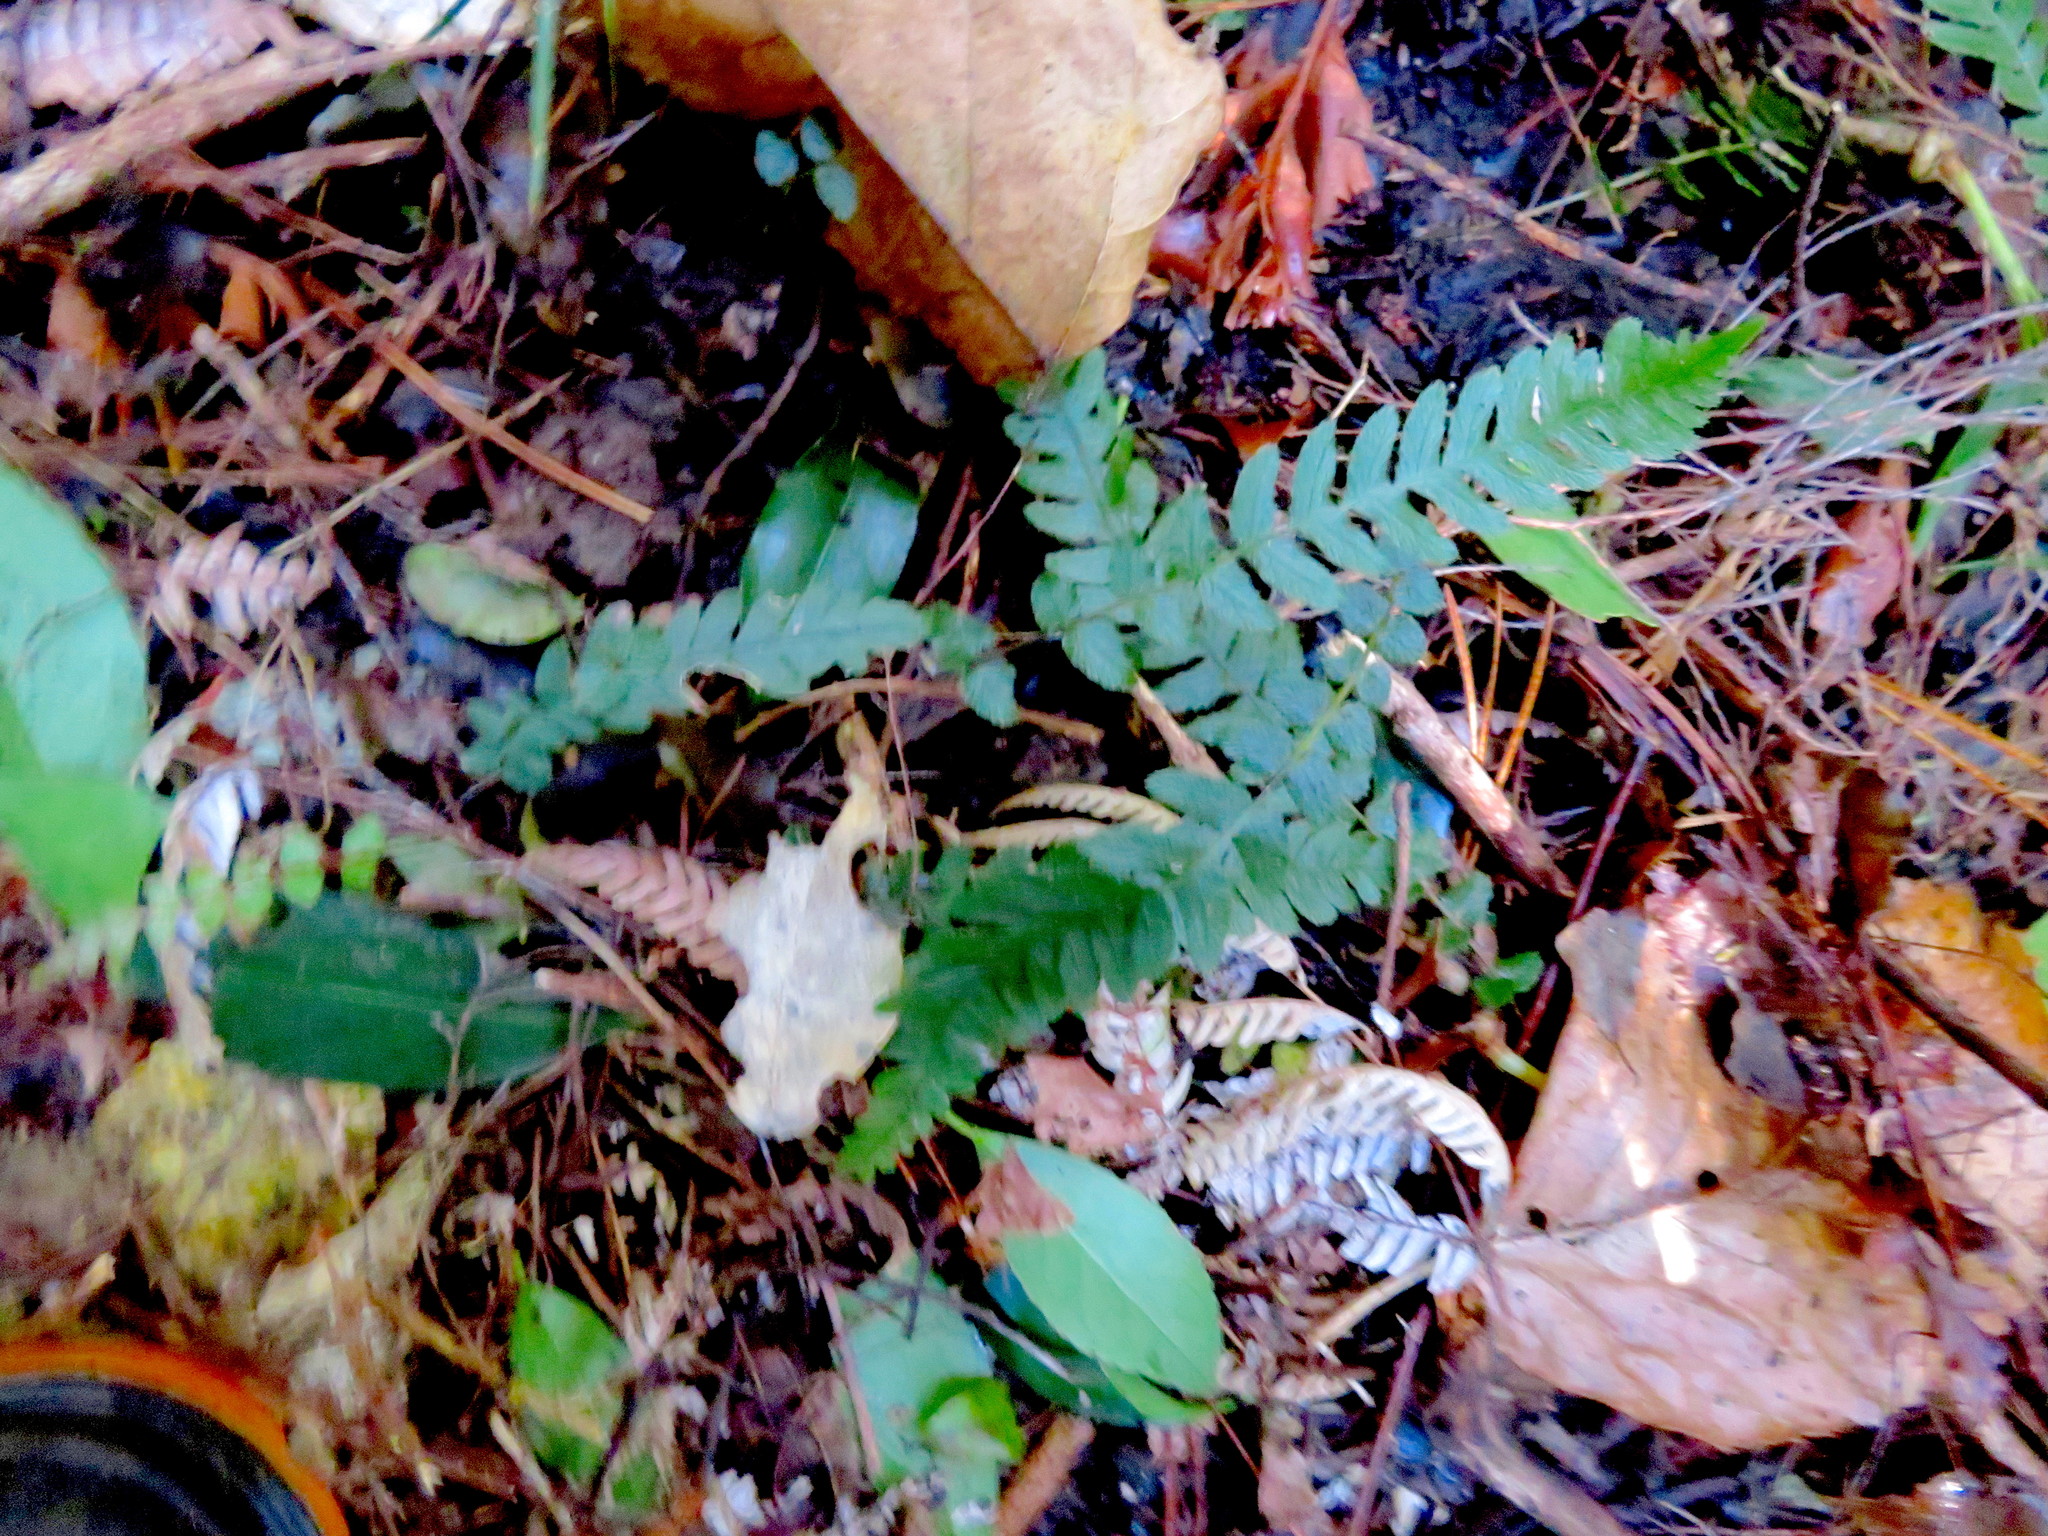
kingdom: Plantae
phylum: Tracheophyta
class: Polypodiopsida
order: Polypodiales
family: Blechnaceae
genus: Doodia
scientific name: Doodia australis
